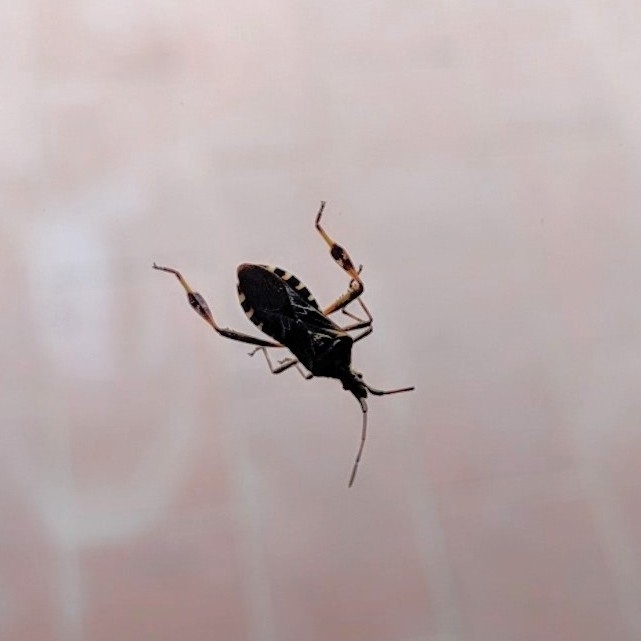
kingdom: Animalia
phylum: Arthropoda
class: Insecta
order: Hemiptera
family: Coreidae
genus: Leptoglossus
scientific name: Leptoglossus occidentalis
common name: Western conifer-seed bug
